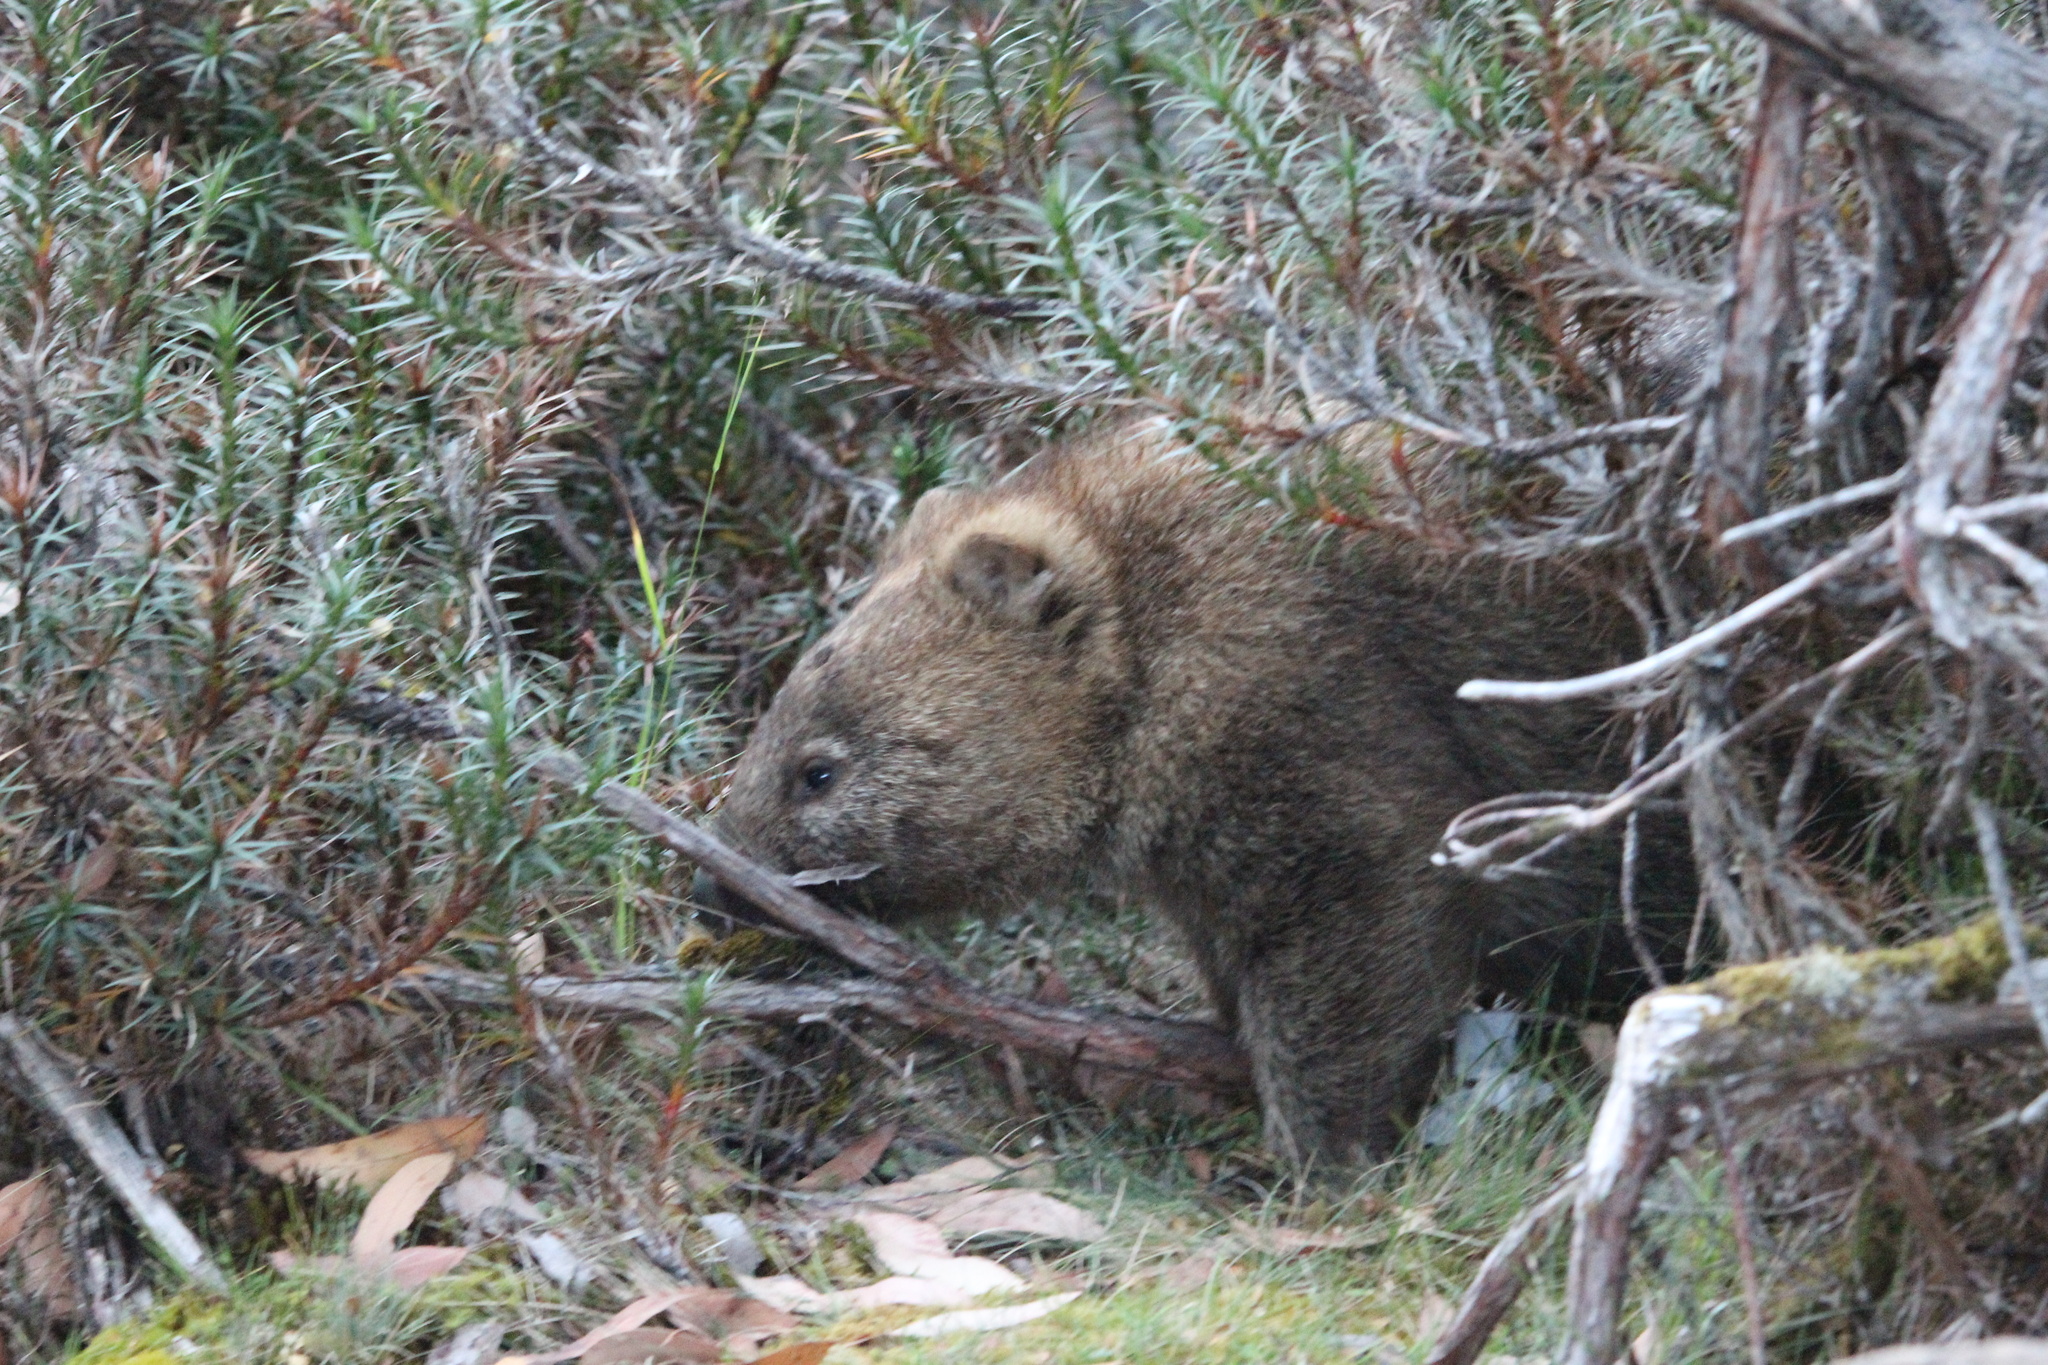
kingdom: Animalia
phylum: Chordata
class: Mammalia
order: Diprotodontia
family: Vombatidae
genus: Vombatus
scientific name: Vombatus ursinus
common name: Common wombat
